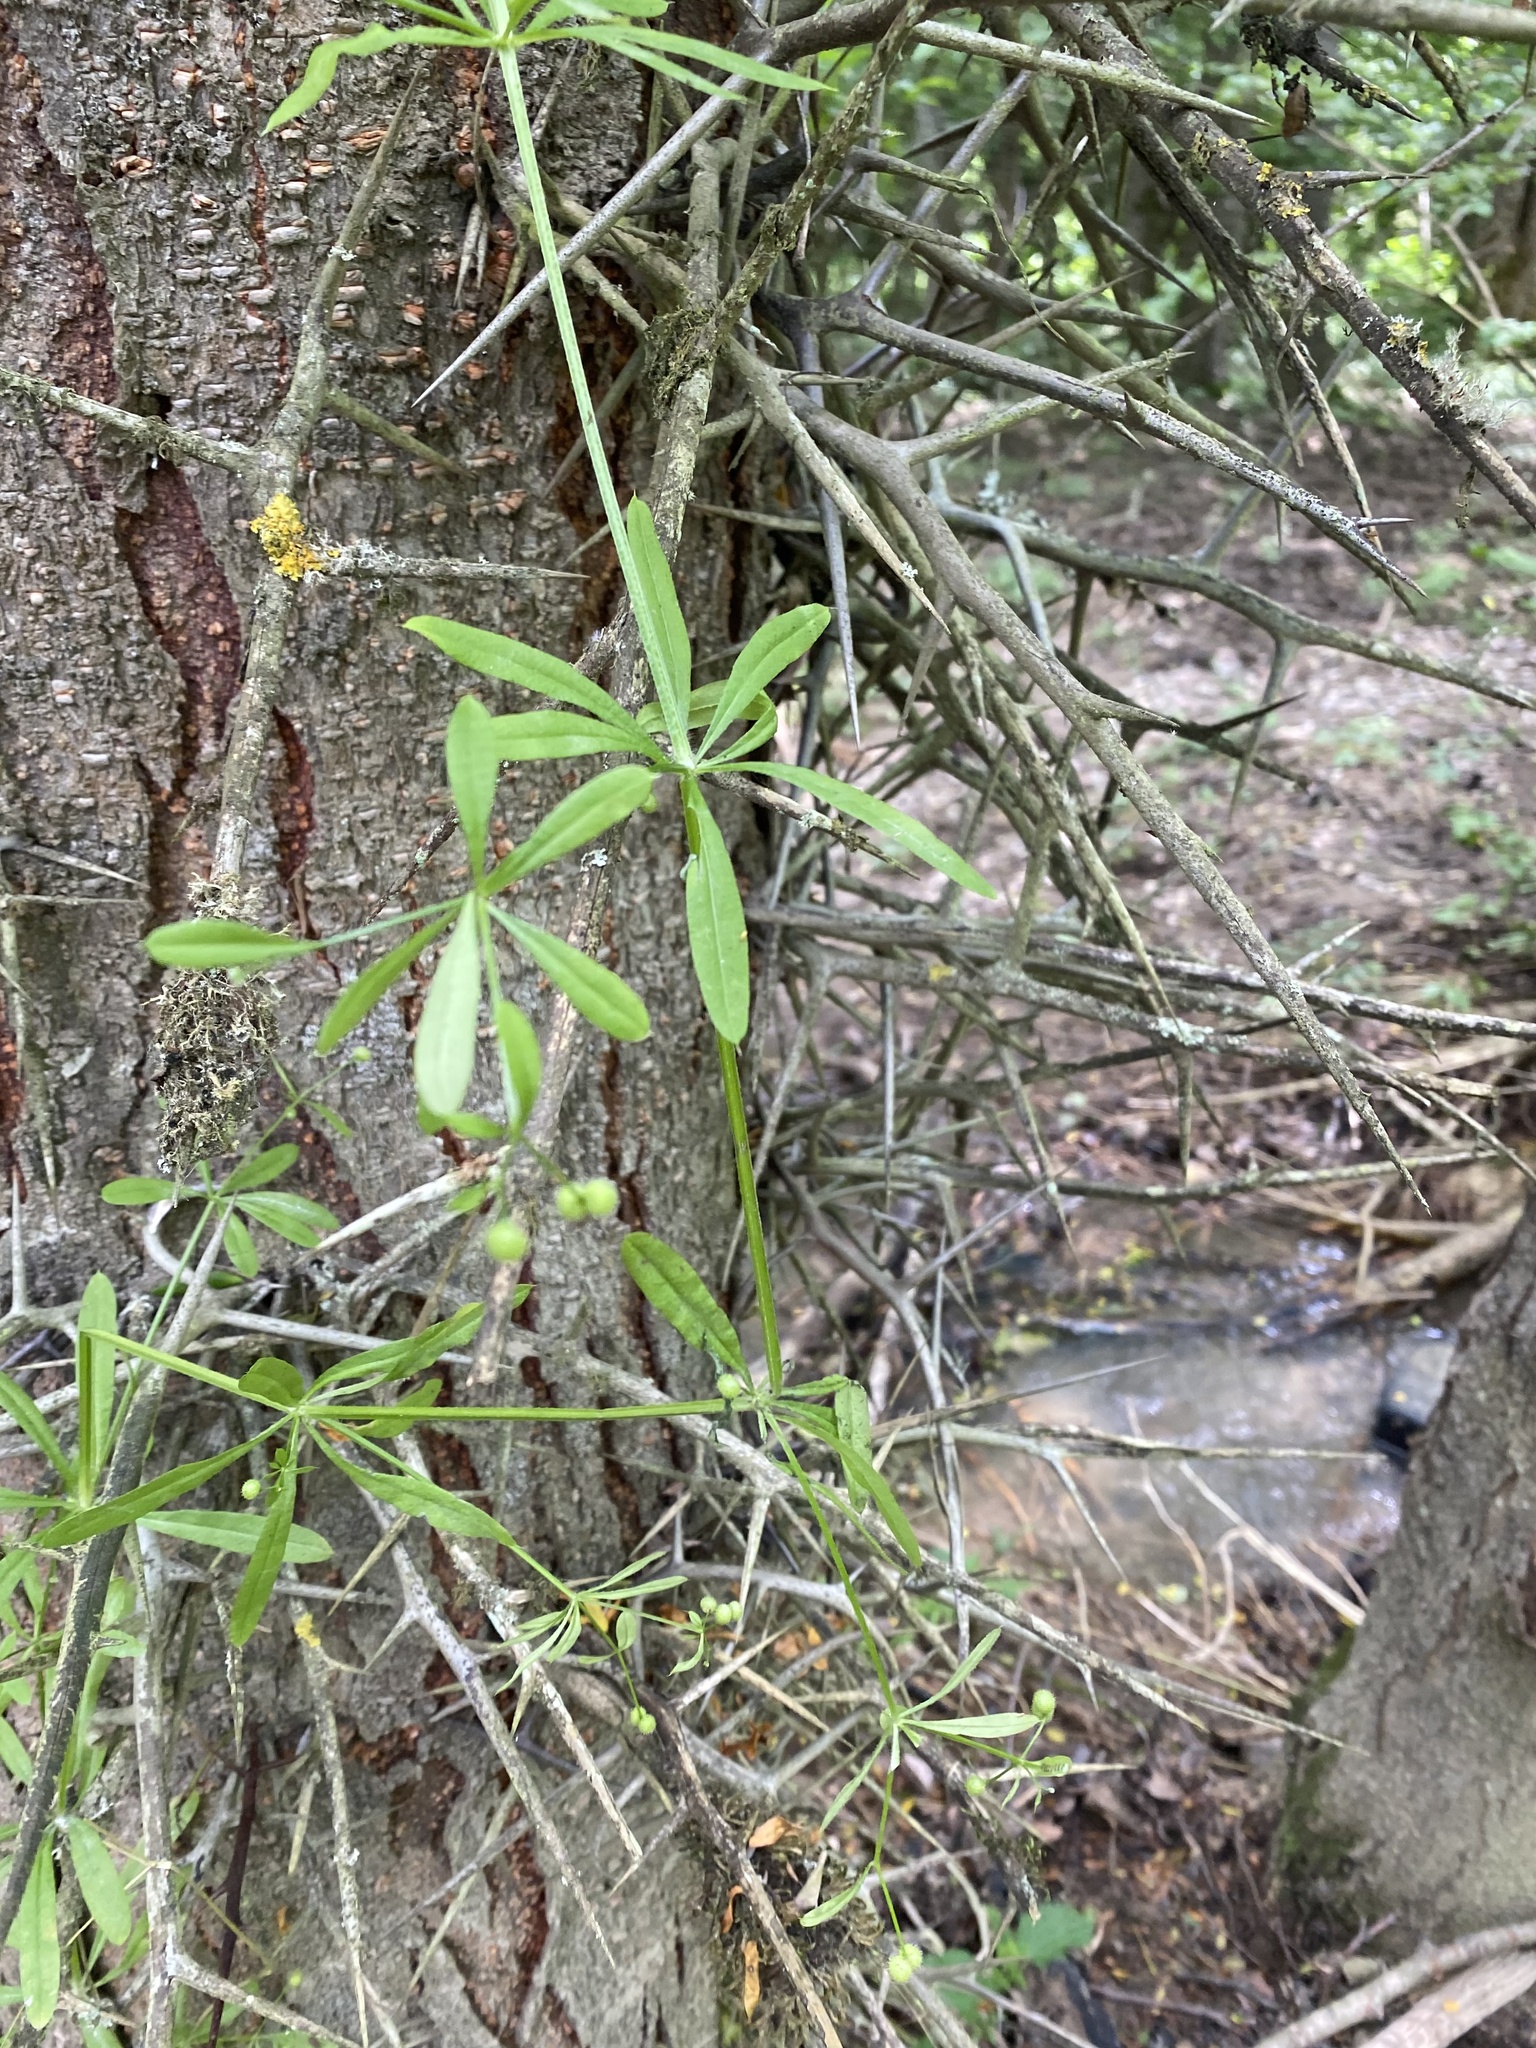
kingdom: Plantae
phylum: Tracheophyta
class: Magnoliopsida
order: Gentianales
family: Rubiaceae
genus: Galium
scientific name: Galium aparine
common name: Cleavers
